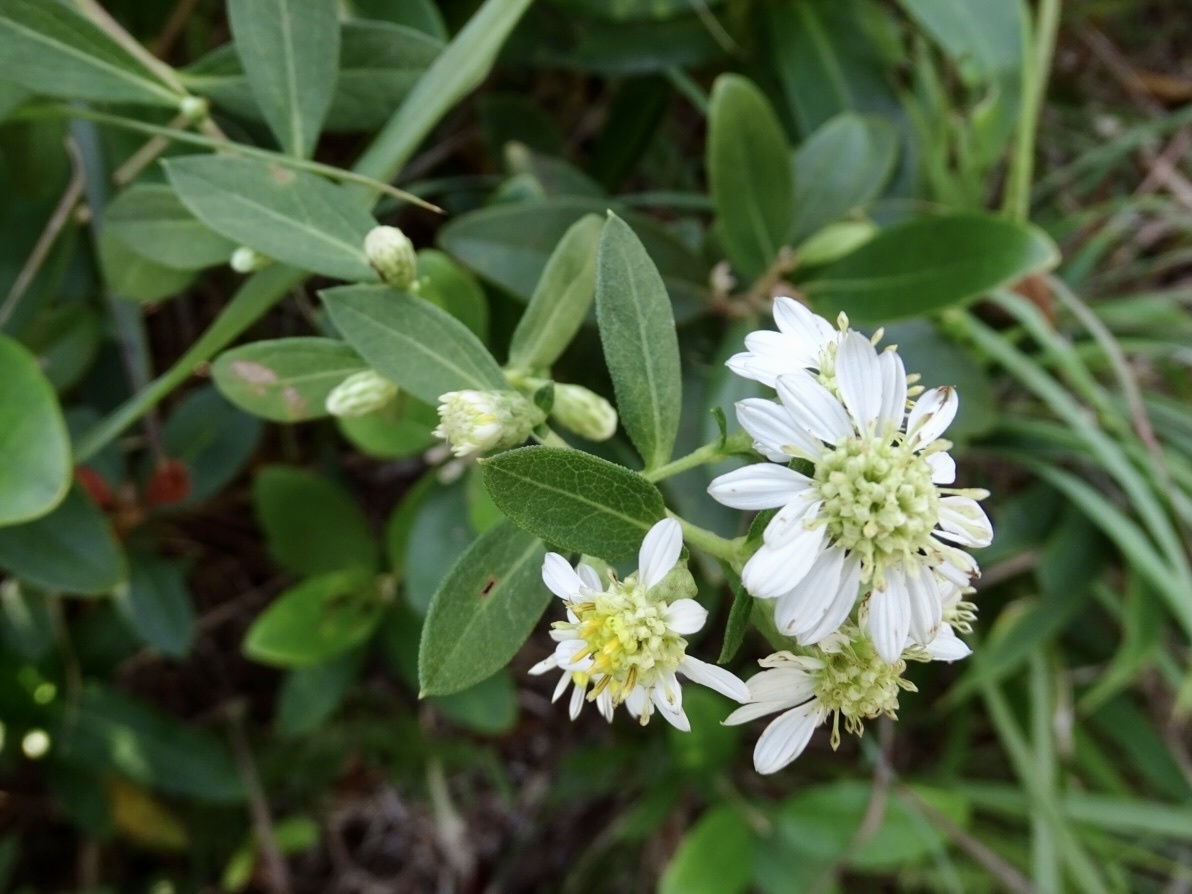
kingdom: Plantae
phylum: Tracheophyta
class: Magnoliopsida
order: Asterales
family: Asteraceae
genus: Aster
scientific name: Aster baccharoides
